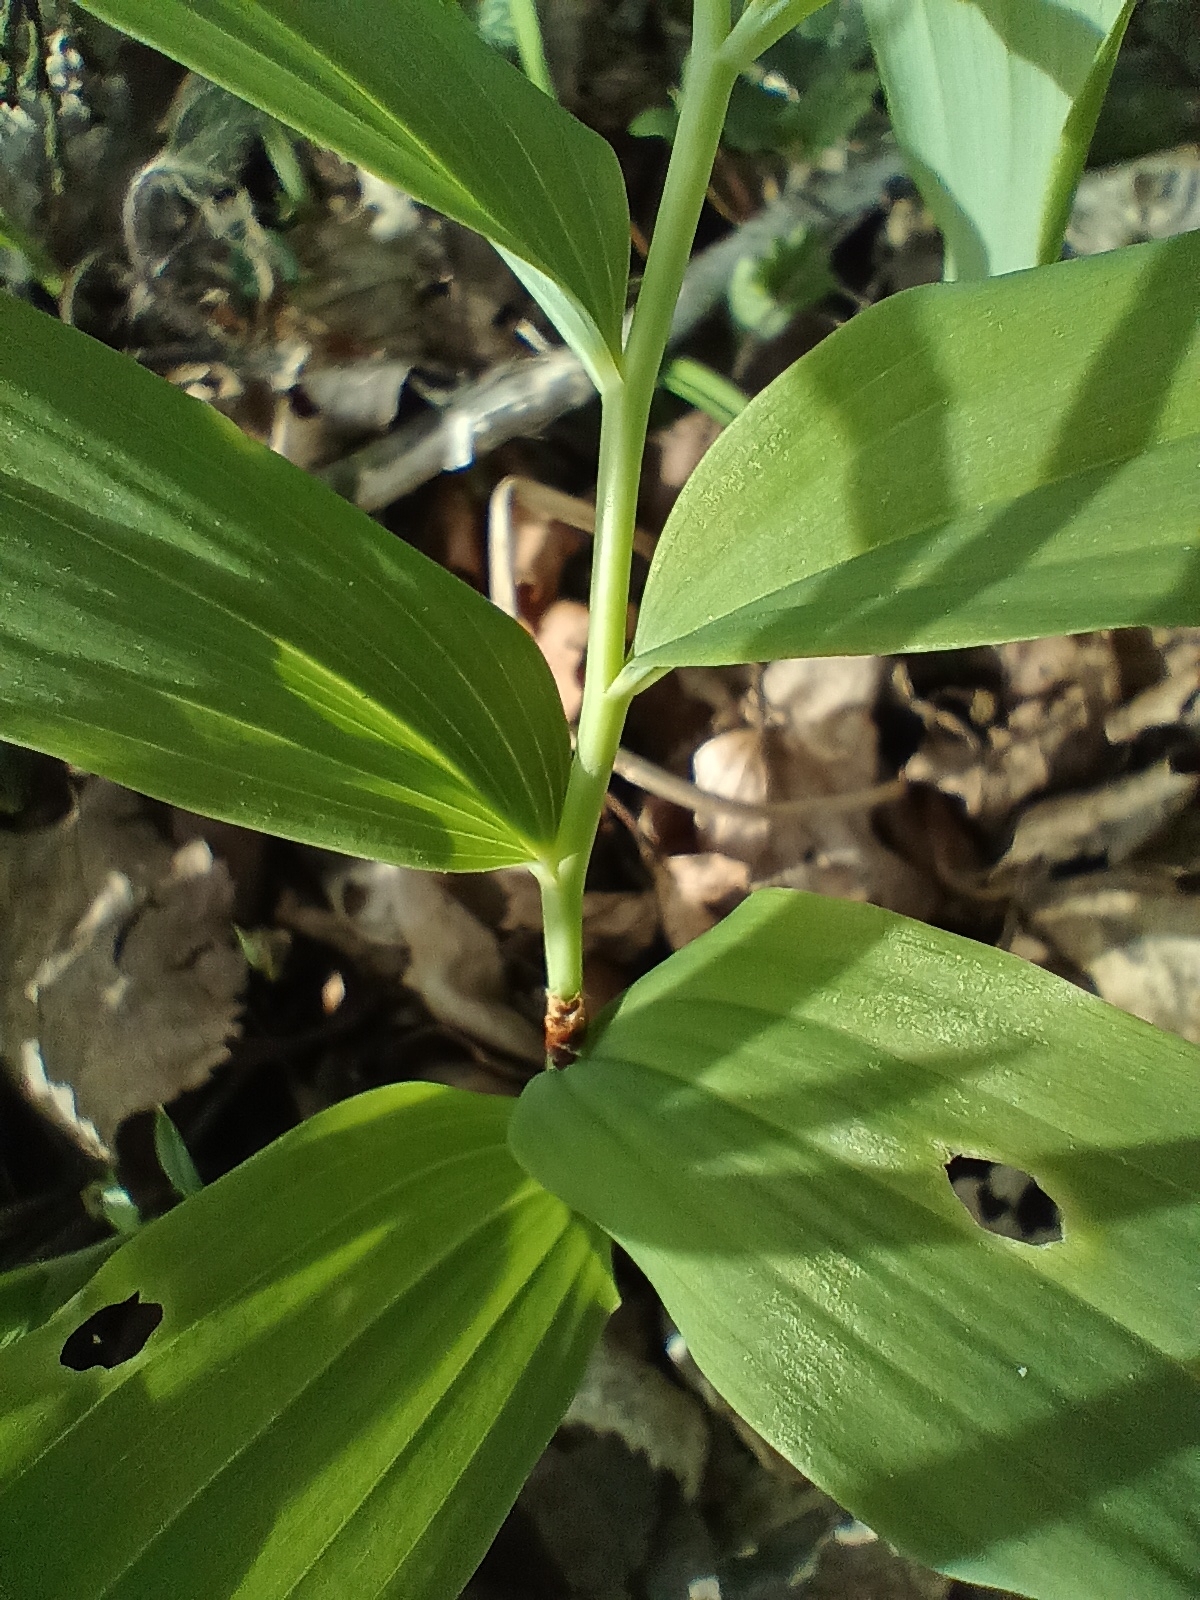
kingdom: Plantae
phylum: Tracheophyta
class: Liliopsida
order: Asparagales
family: Asparagaceae
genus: Polygonatum
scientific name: Polygonatum multiflorum
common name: Solomon's-seal
